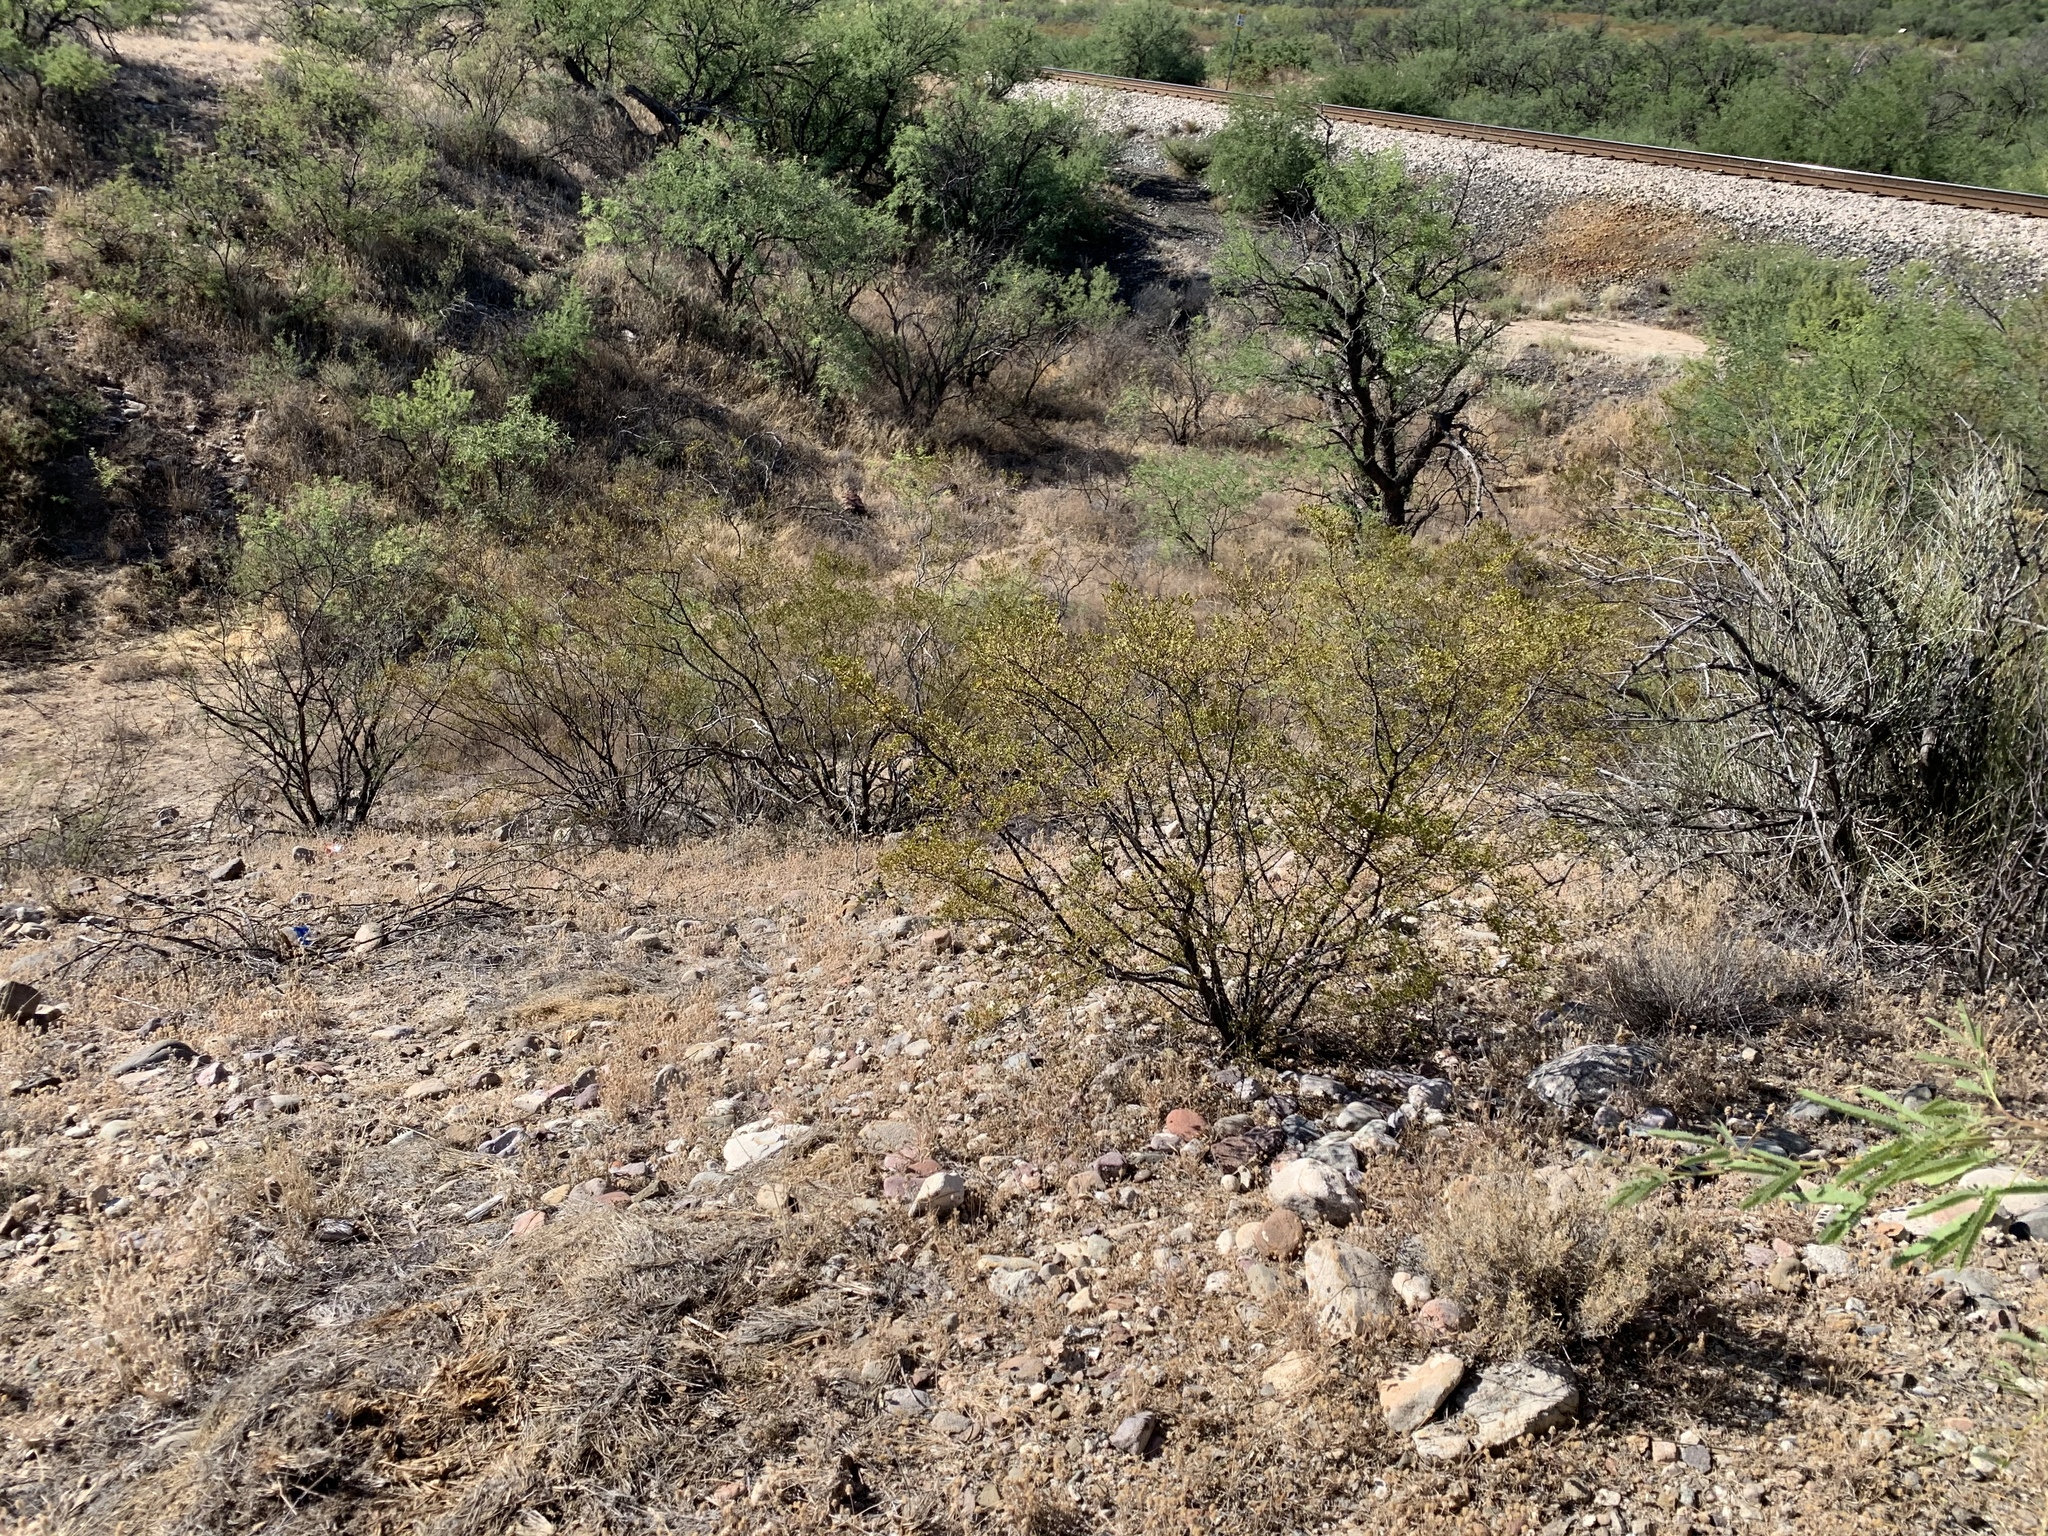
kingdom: Plantae
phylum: Tracheophyta
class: Magnoliopsida
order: Zygophyllales
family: Zygophyllaceae
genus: Larrea
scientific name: Larrea tridentata
